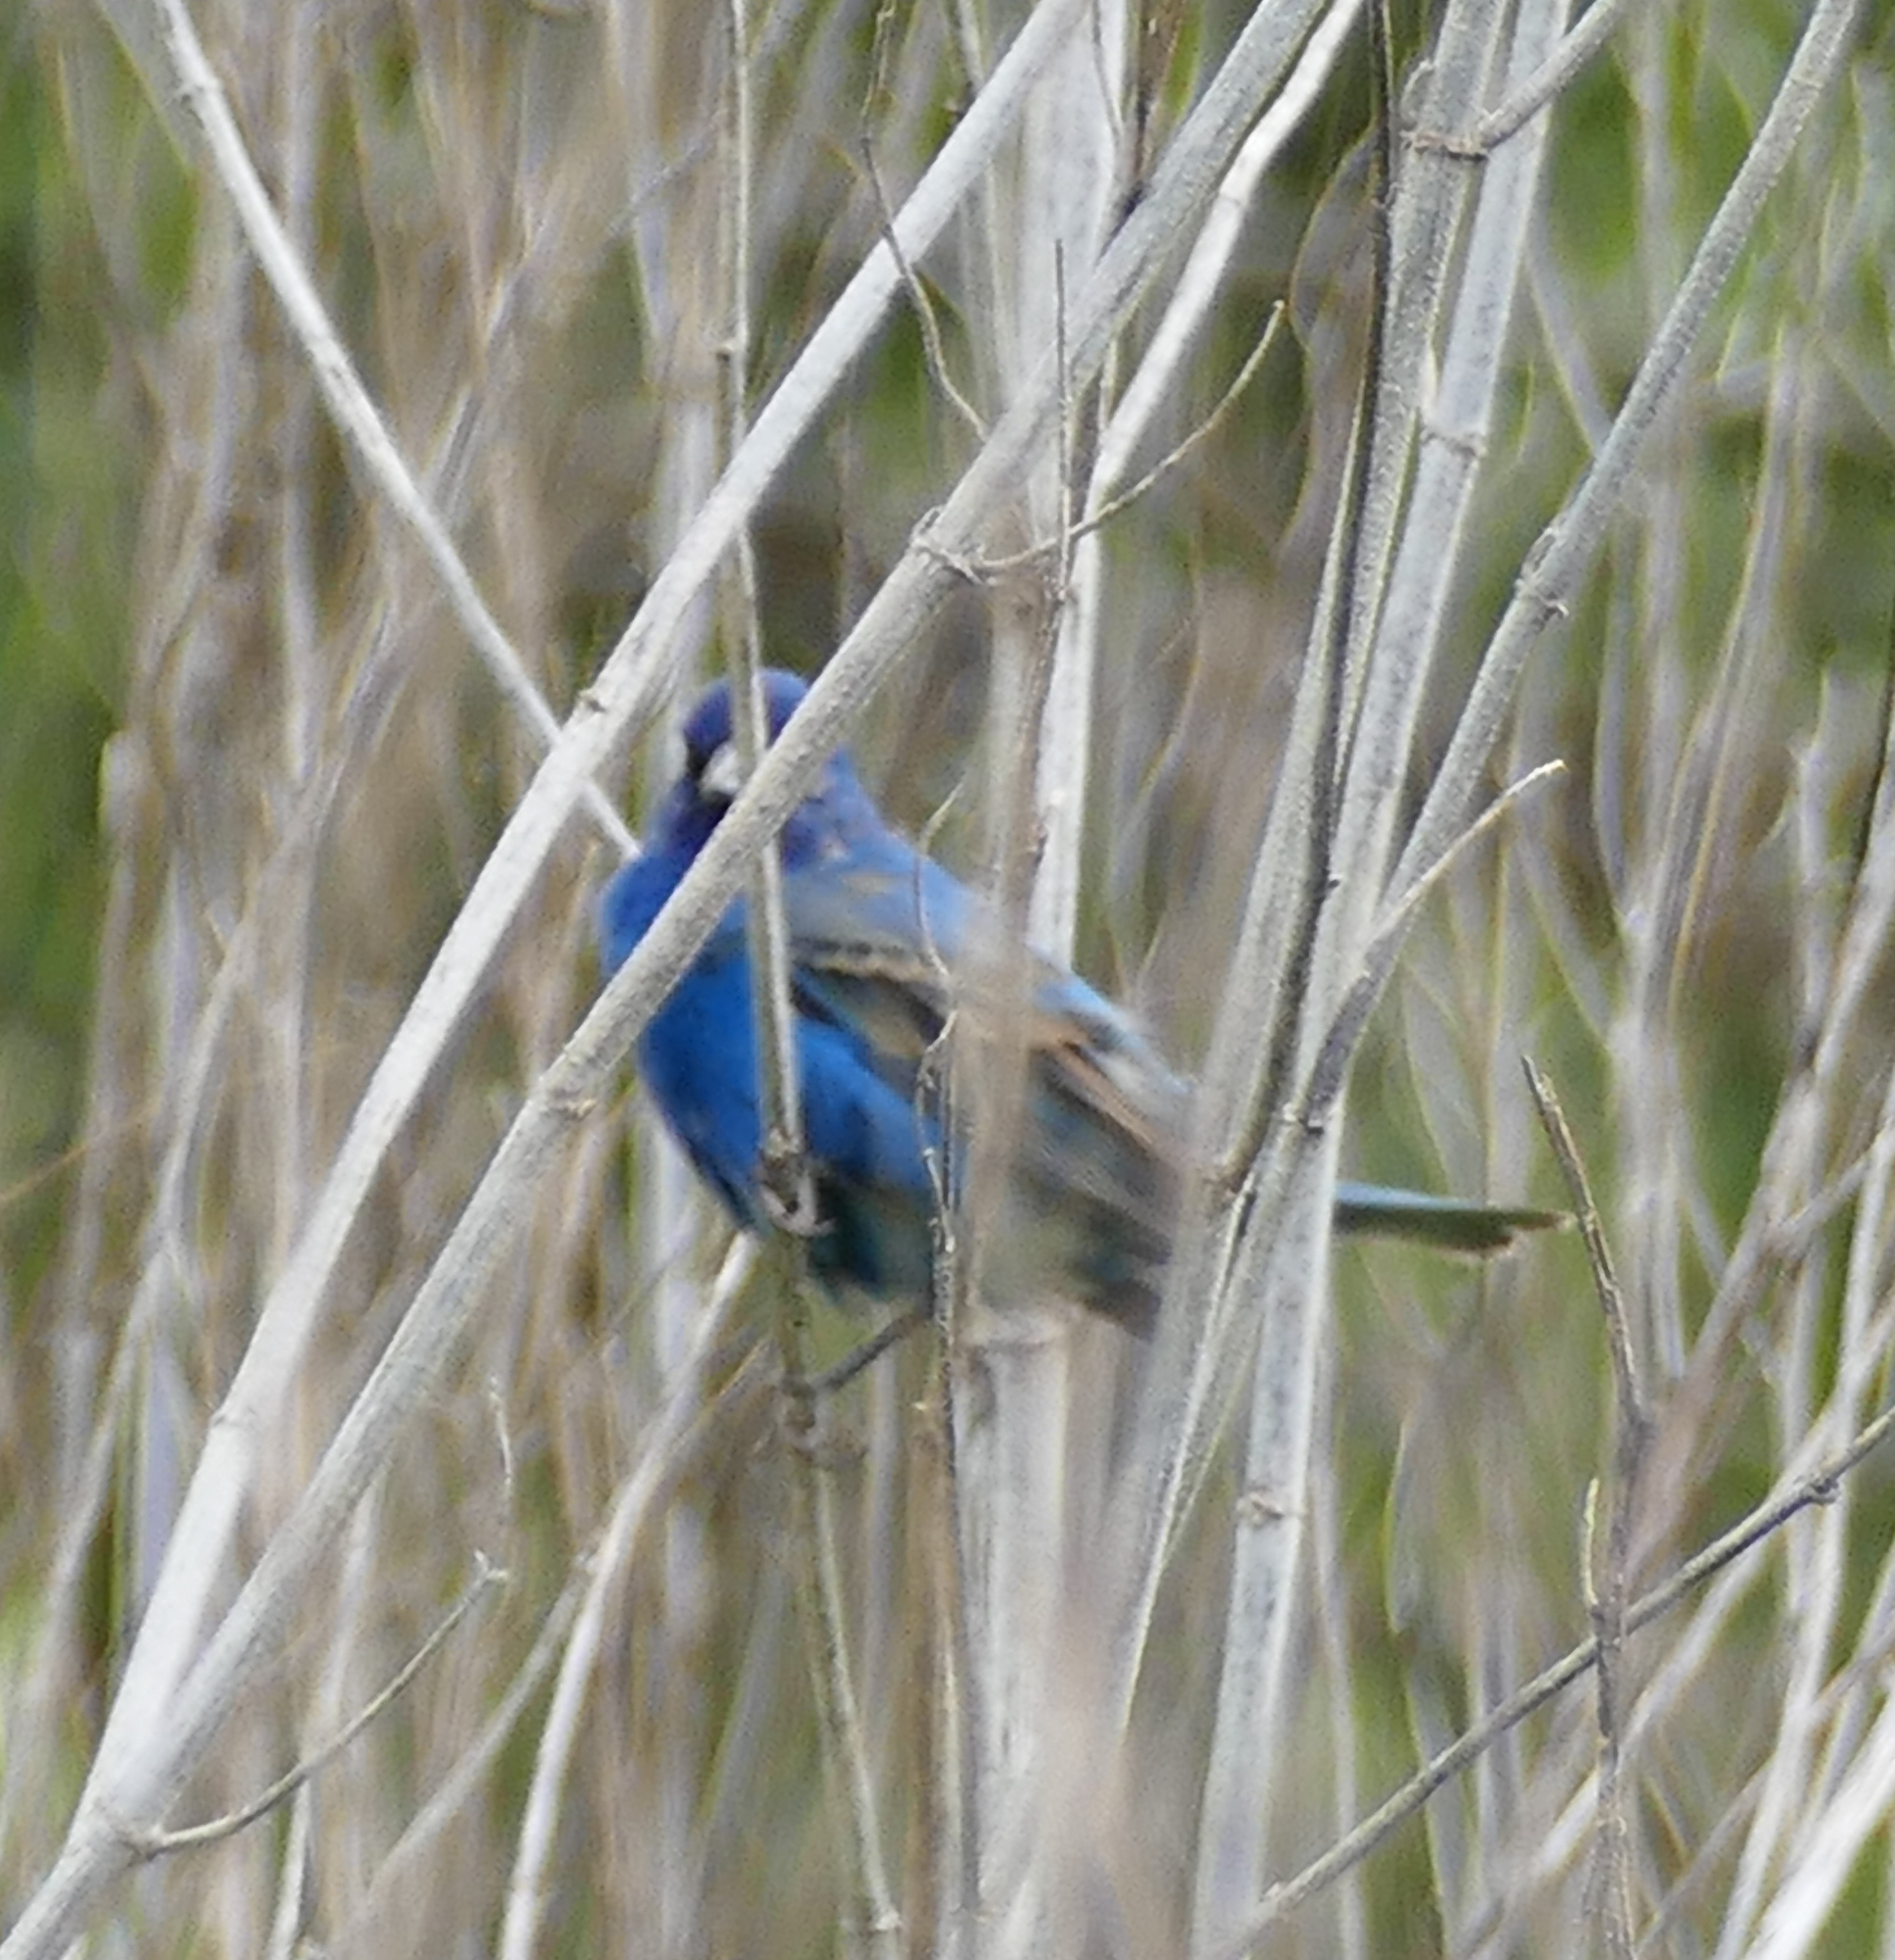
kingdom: Animalia
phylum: Chordata
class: Aves
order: Passeriformes
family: Cardinalidae
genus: Passerina
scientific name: Passerina cyanea
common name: Indigo bunting
